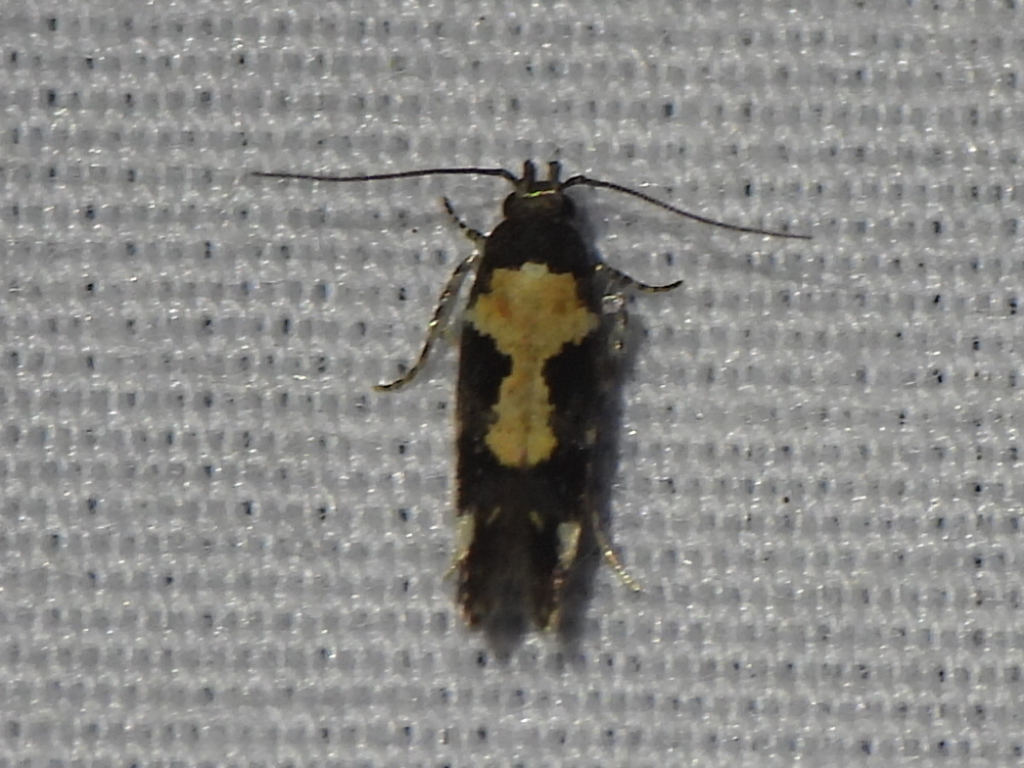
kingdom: Animalia
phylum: Arthropoda
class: Insecta
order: Lepidoptera
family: Gelechiidae
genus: Stegasta
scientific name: Stegasta bosqueella
